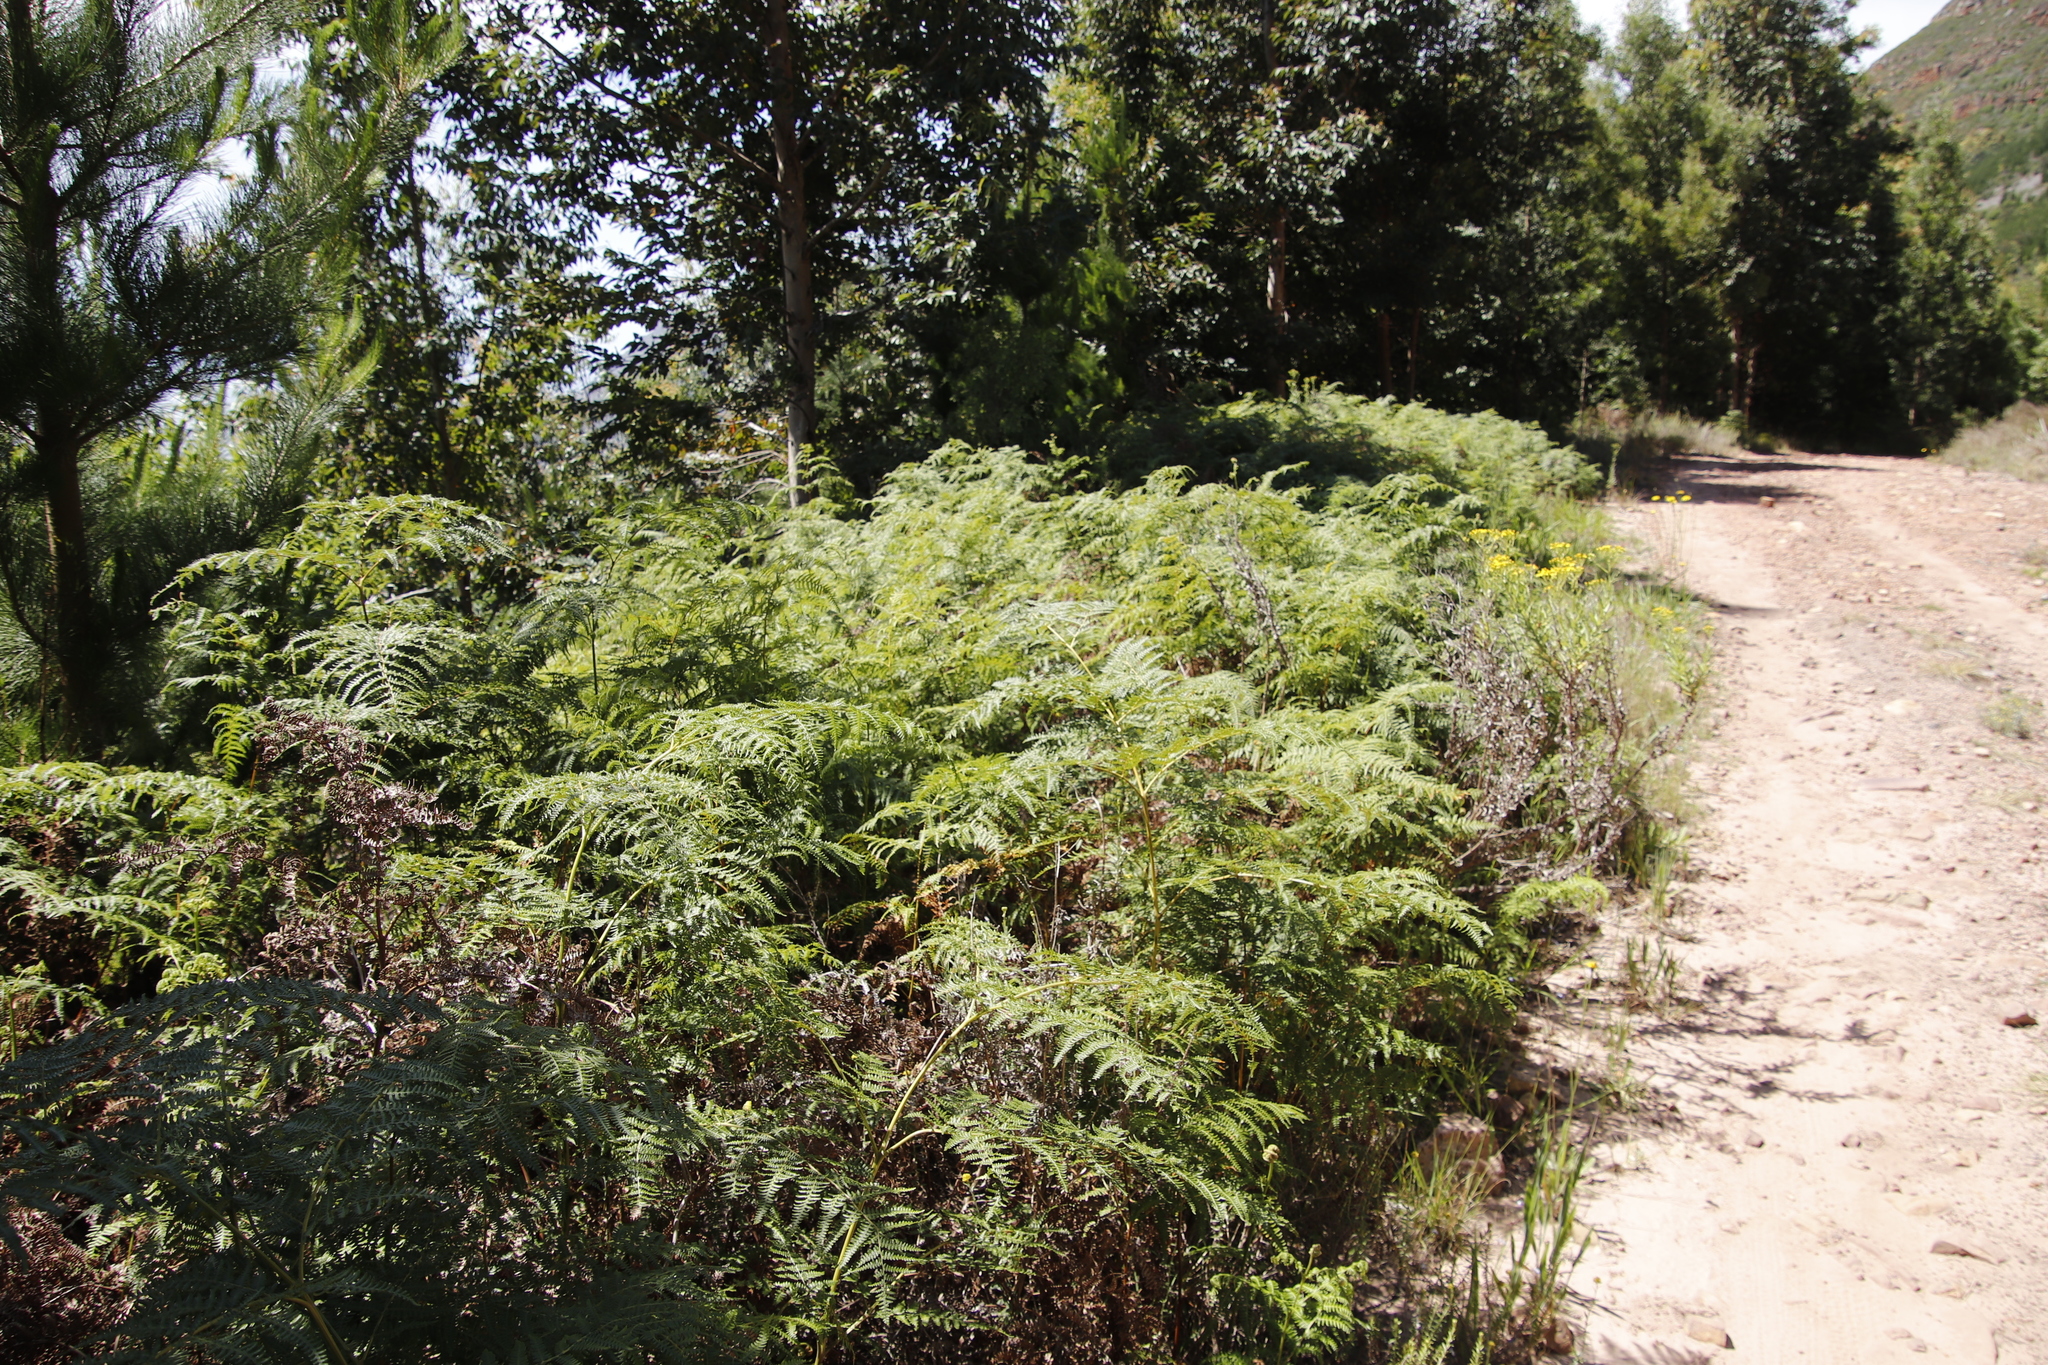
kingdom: Plantae
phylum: Tracheophyta
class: Polypodiopsida
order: Polypodiales
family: Dennstaedtiaceae
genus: Pteridium
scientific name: Pteridium aquilinum
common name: Bracken
